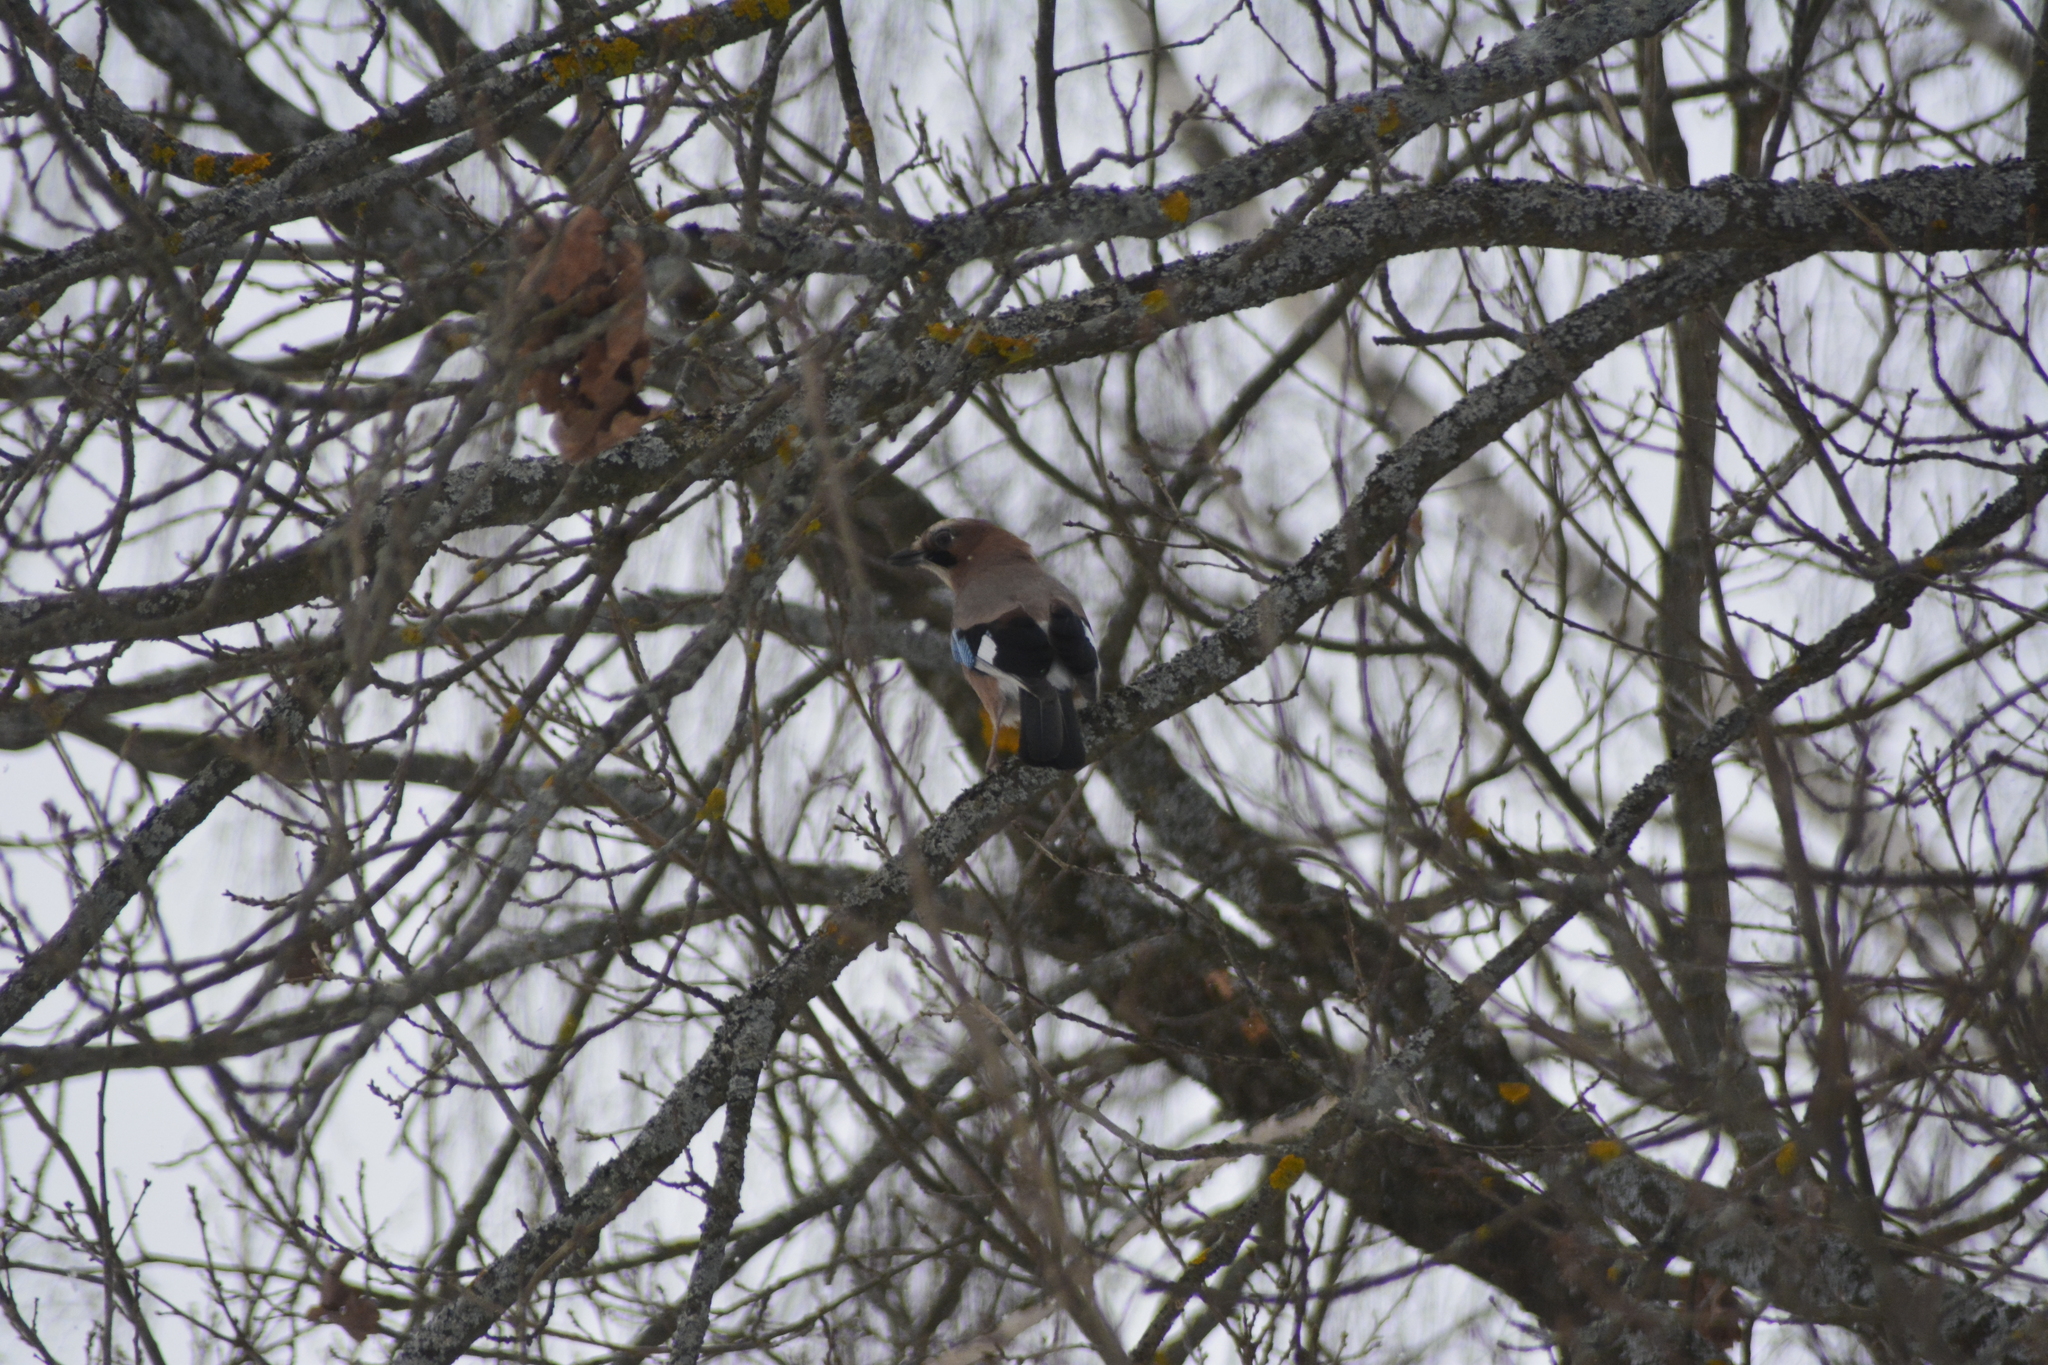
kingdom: Animalia
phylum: Chordata
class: Aves
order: Passeriformes
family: Corvidae
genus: Garrulus
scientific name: Garrulus glandarius
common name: Eurasian jay
